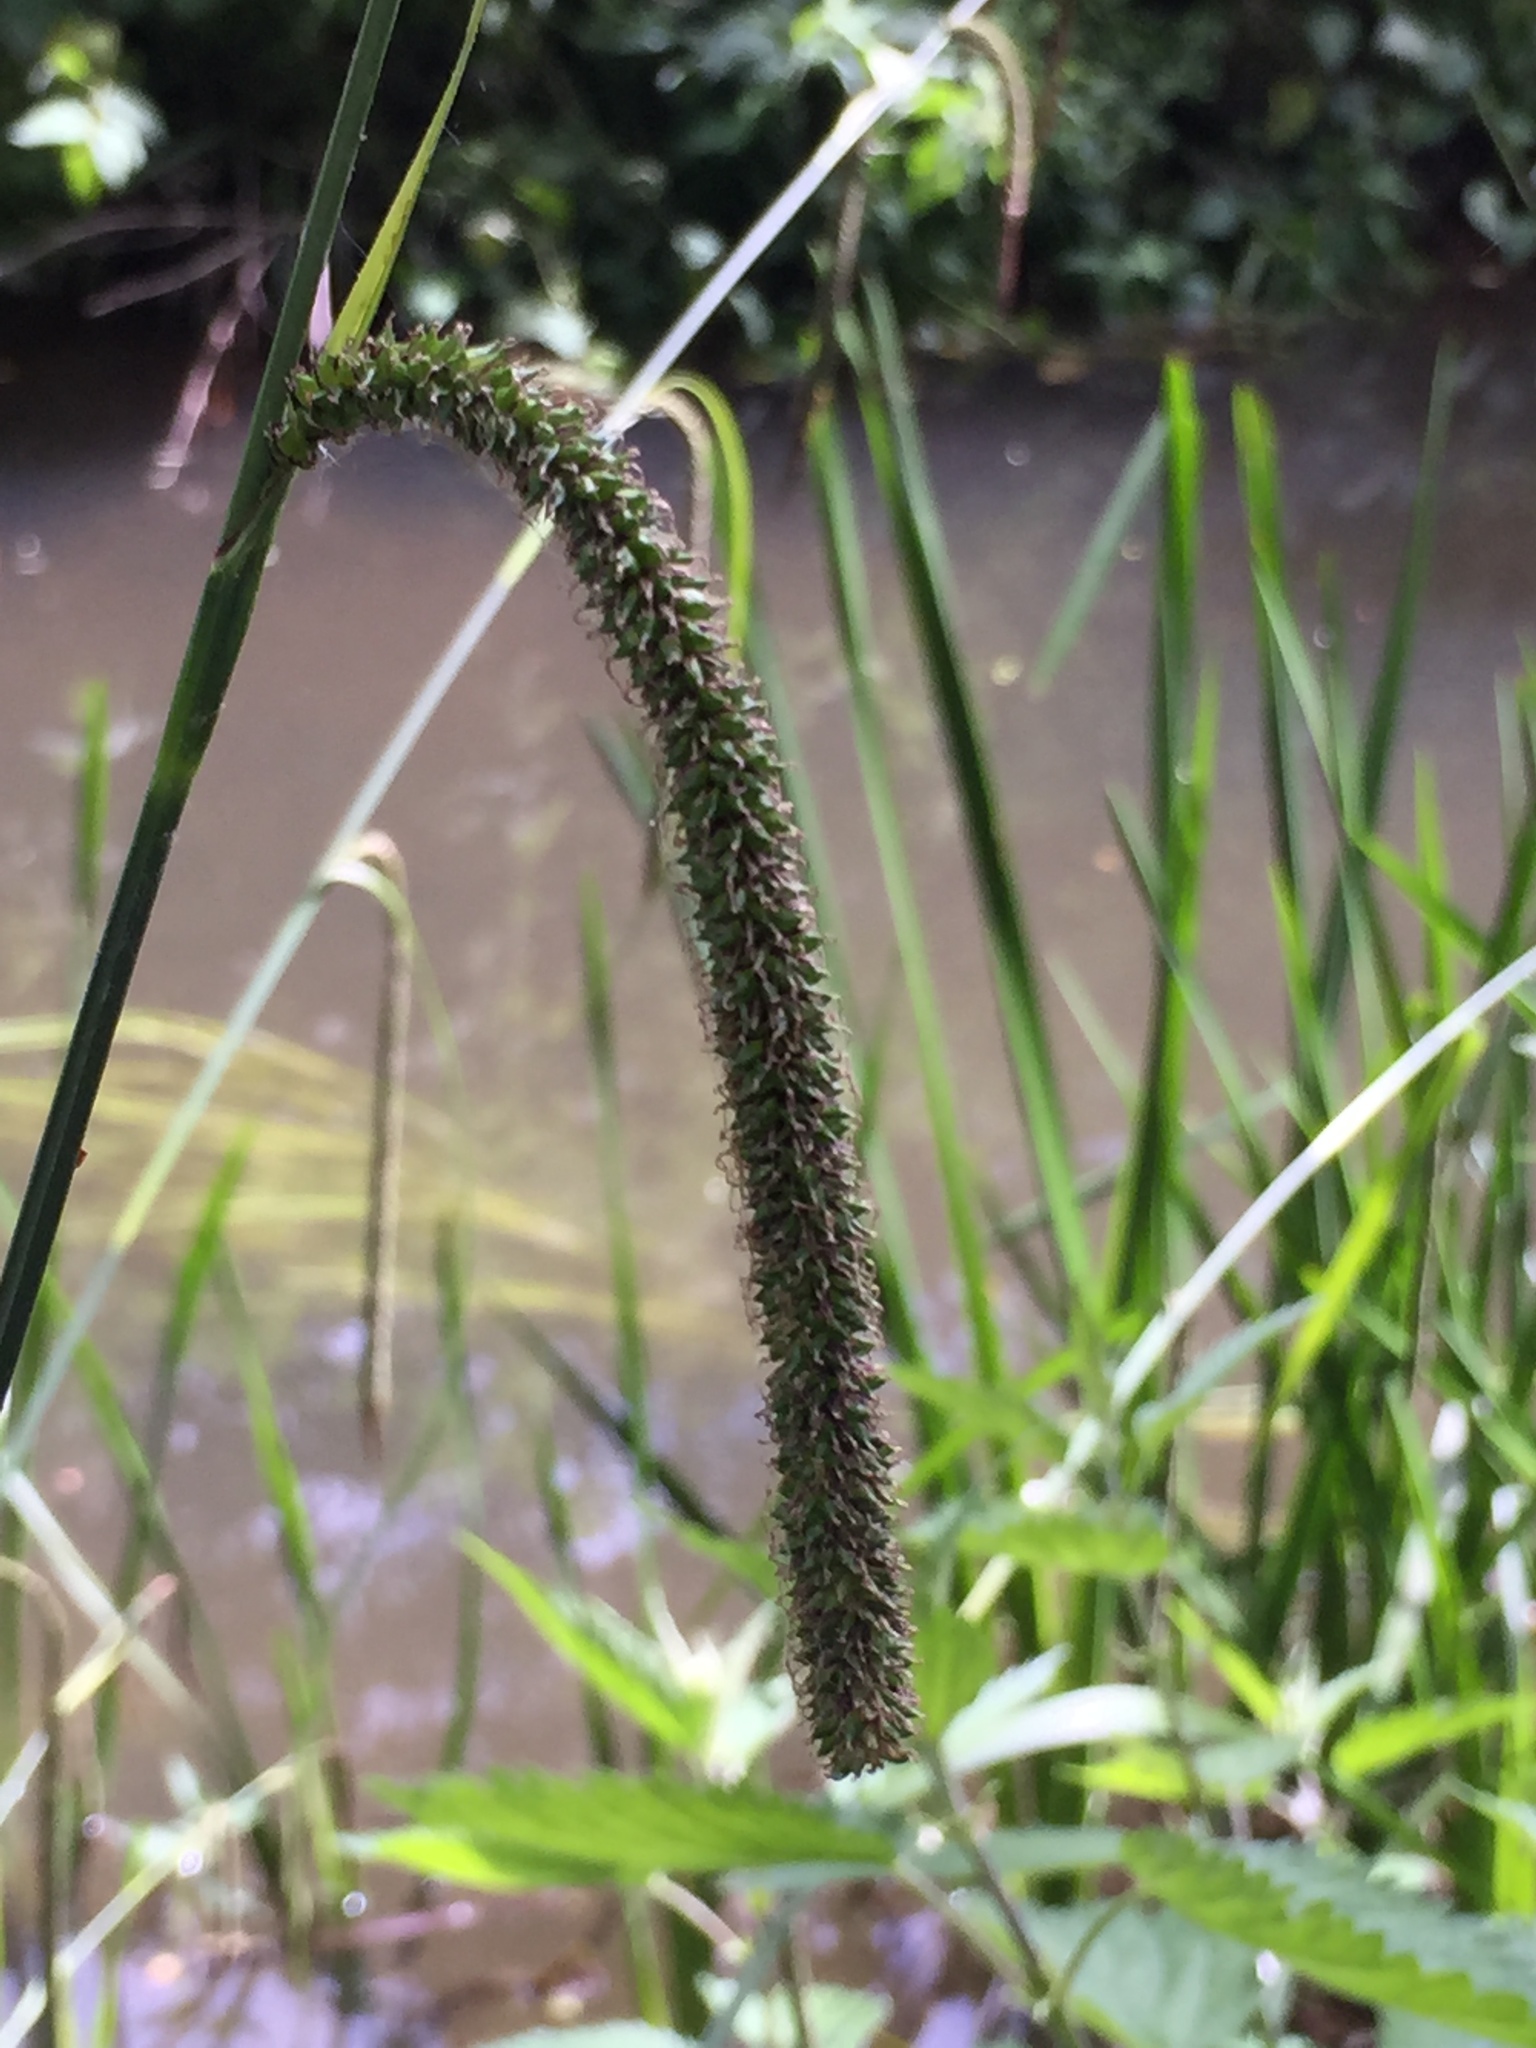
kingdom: Plantae
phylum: Tracheophyta
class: Liliopsida
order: Poales
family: Cyperaceae
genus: Carex
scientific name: Carex pendula
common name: Pendulous sedge
